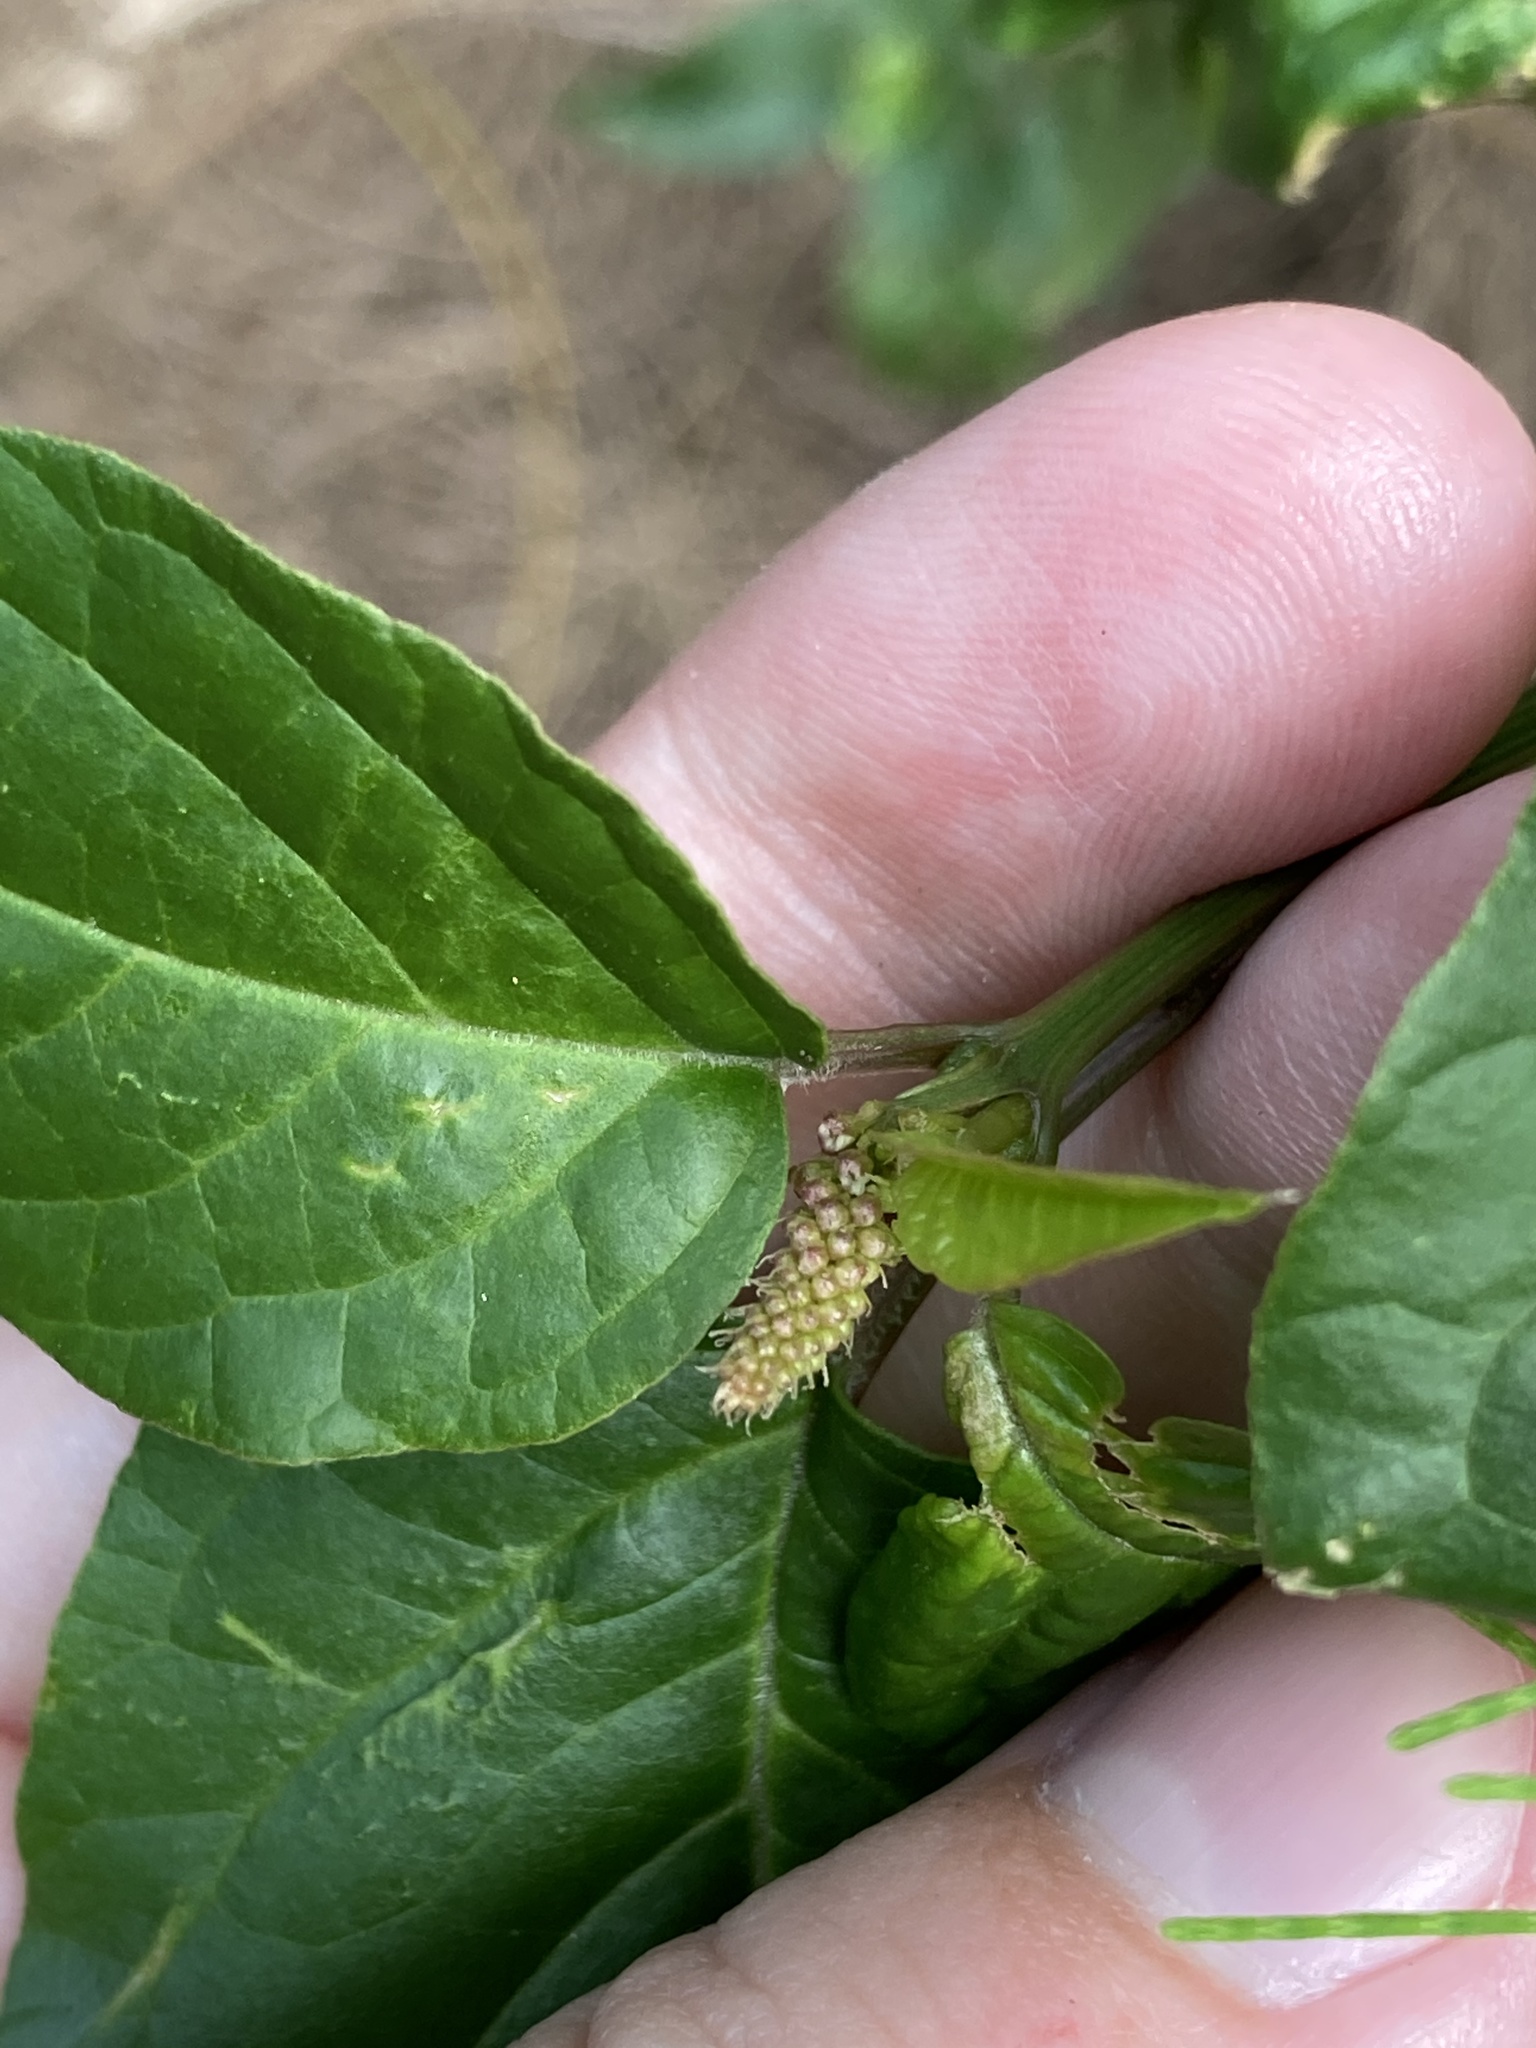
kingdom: Plantae
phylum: Tracheophyta
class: Magnoliopsida
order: Caryophyllales
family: Phytolaccaceae
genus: Rivina
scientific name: Rivina humilis
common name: Rougeplant
